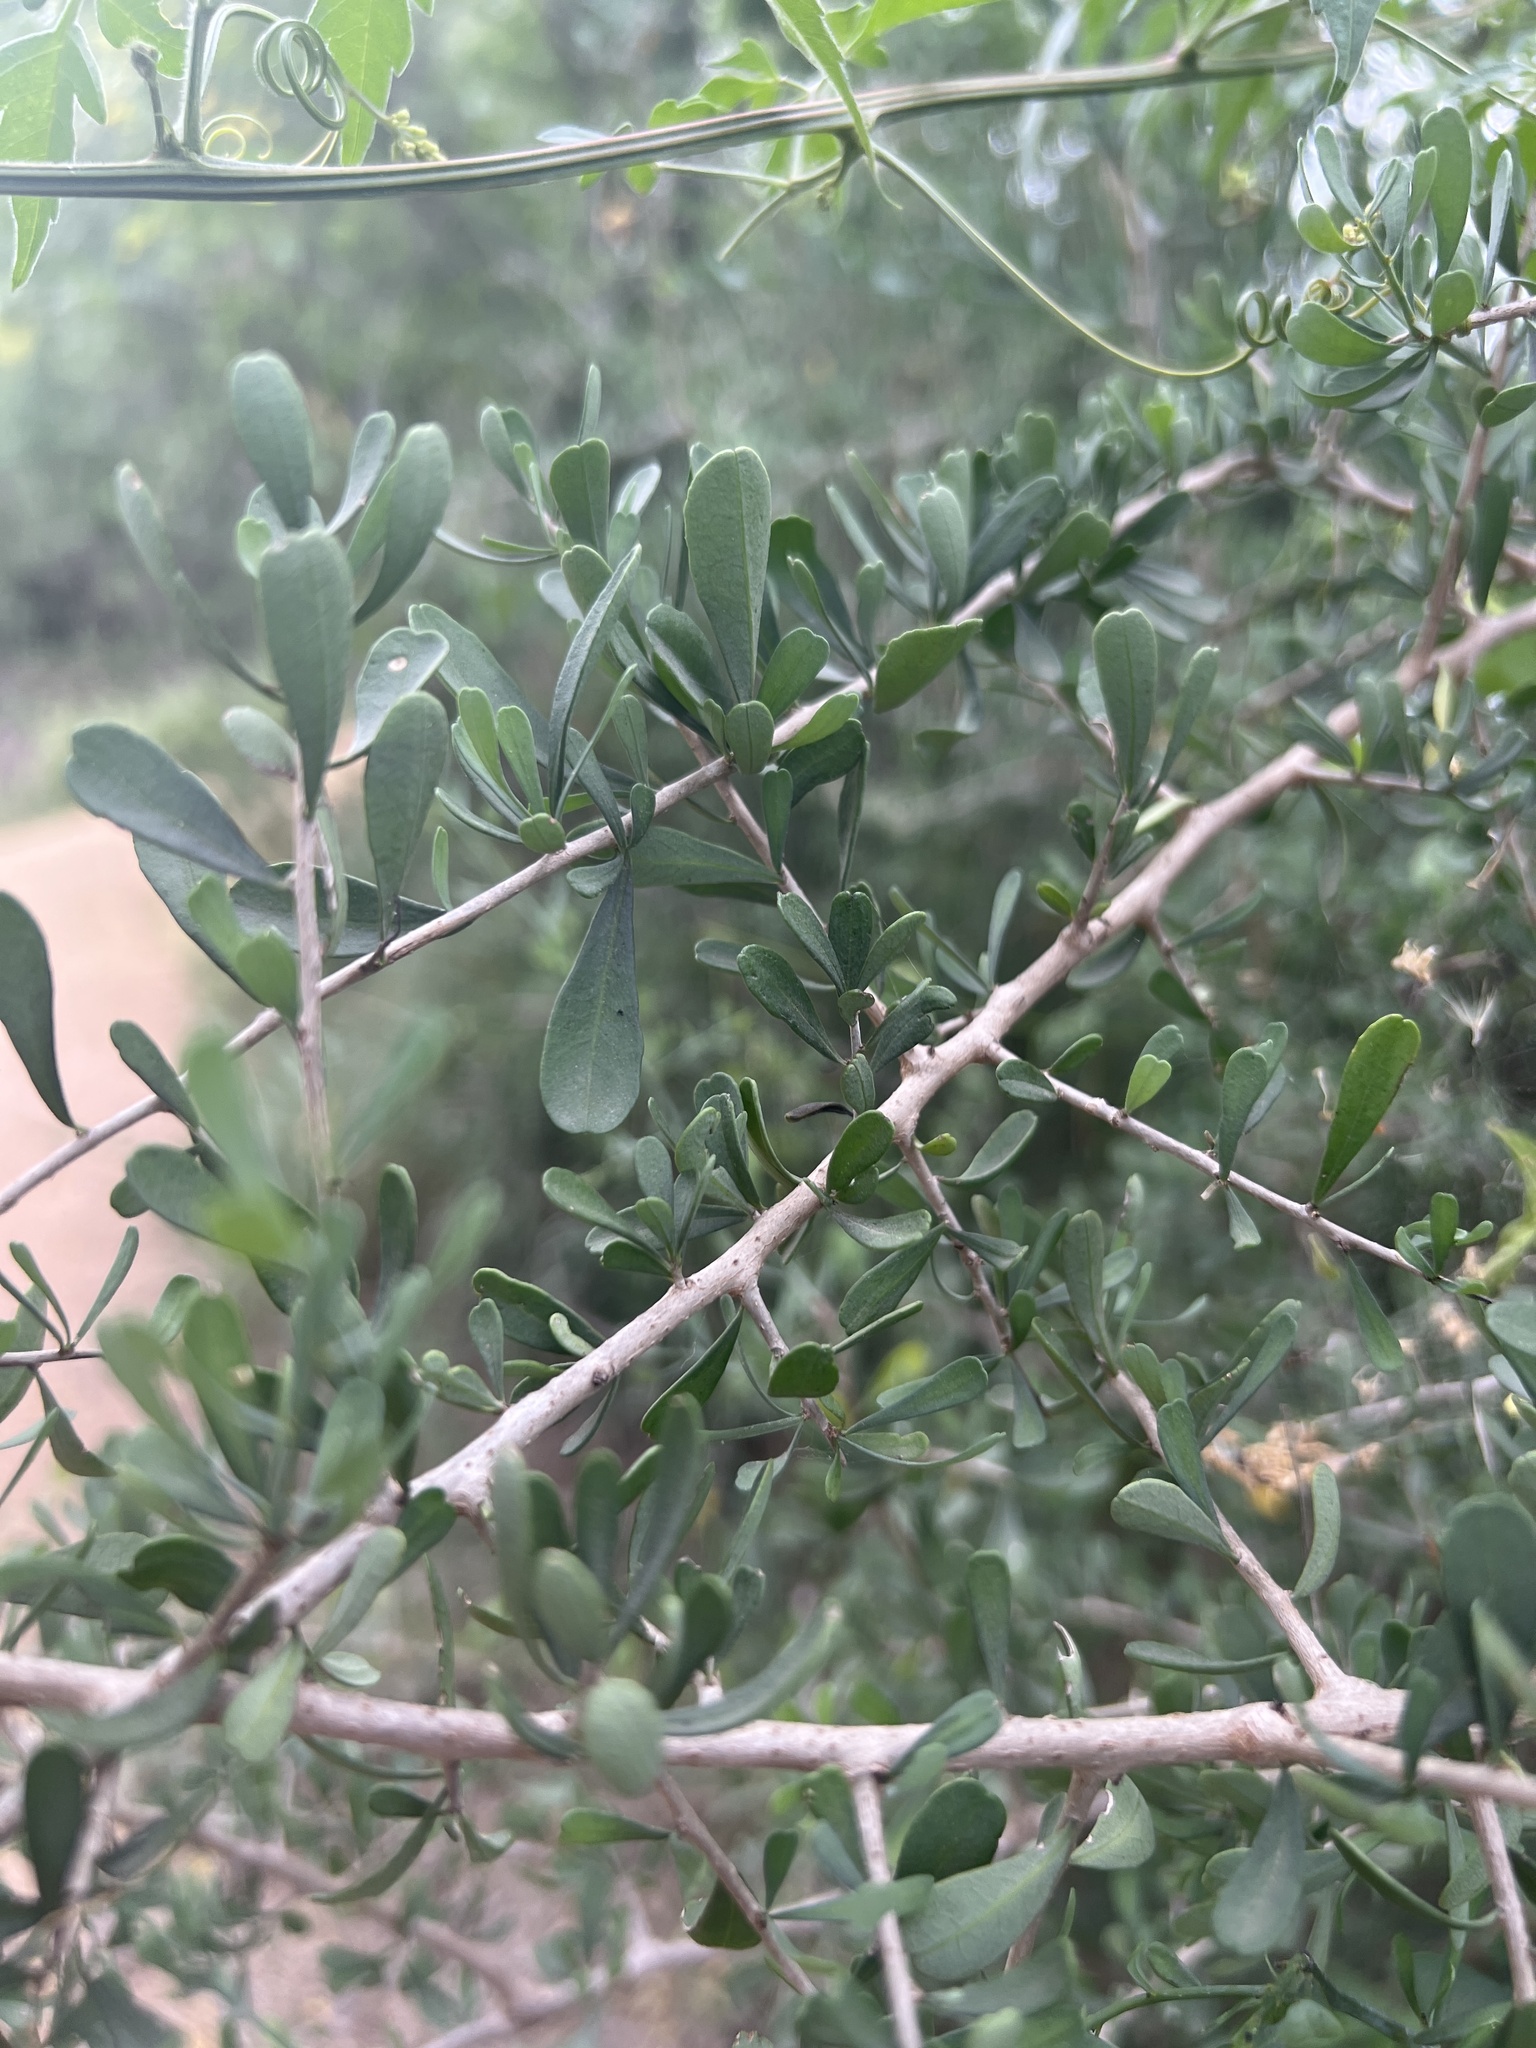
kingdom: Plantae
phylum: Tracheophyta
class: Magnoliopsida
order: Caryophyllales
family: Achatocarpaceae
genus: Phaulothamnus
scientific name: Phaulothamnus spinescens
